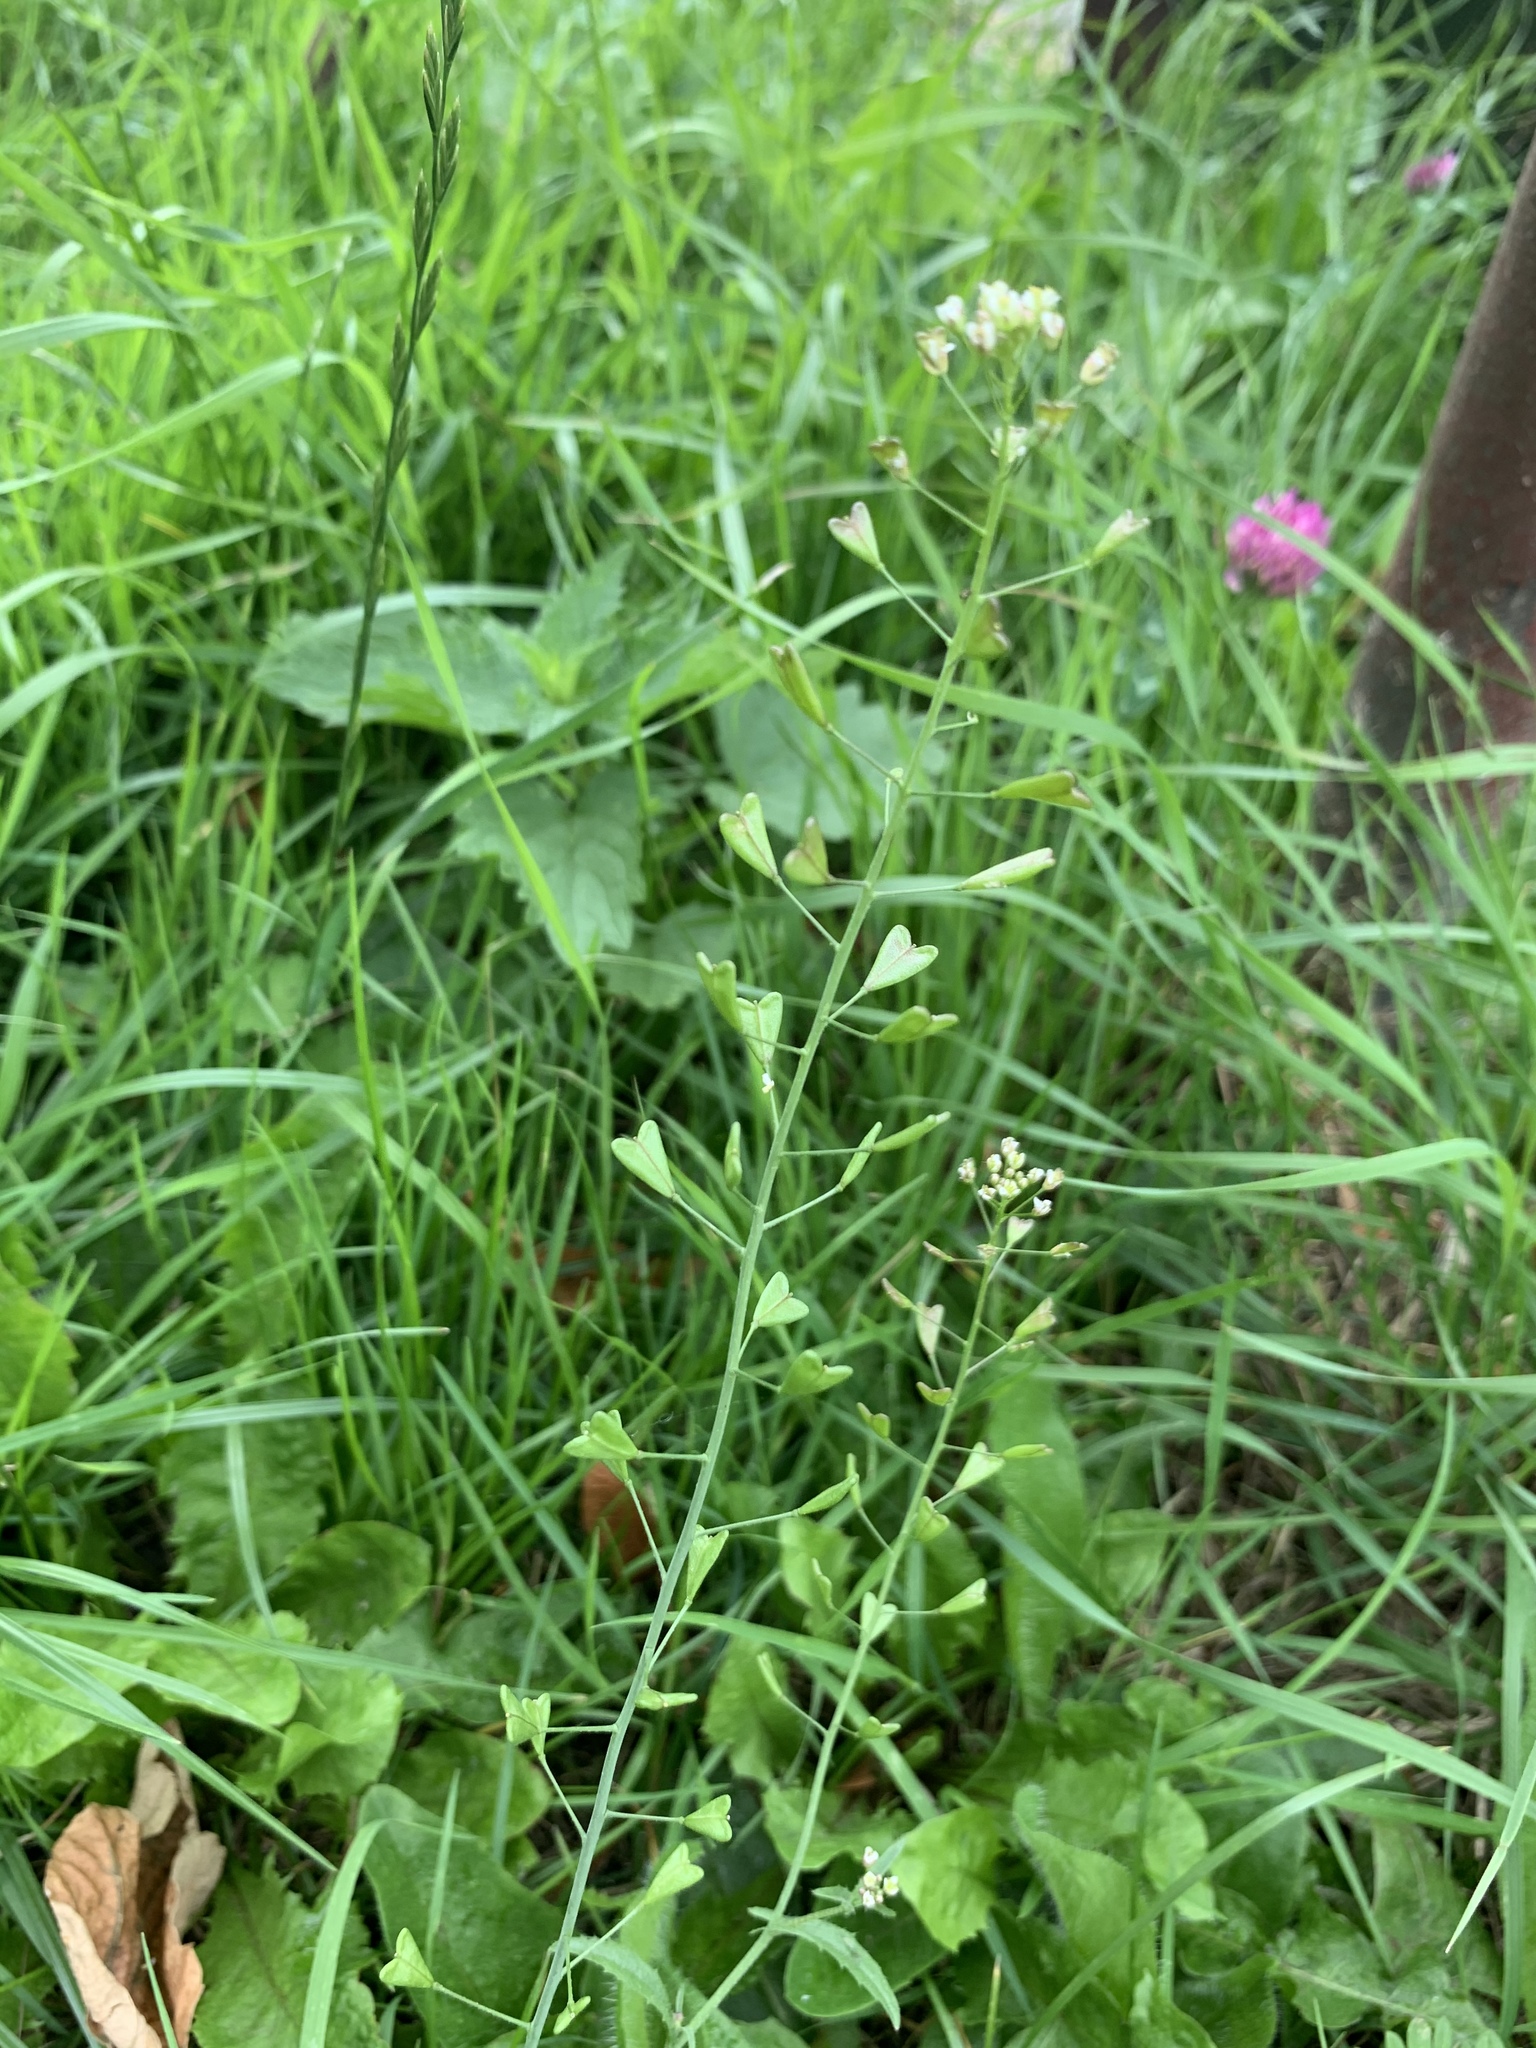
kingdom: Plantae
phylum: Tracheophyta
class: Magnoliopsida
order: Brassicales
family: Brassicaceae
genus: Capsella
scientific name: Capsella bursa-pastoris
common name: Shepherd's purse
